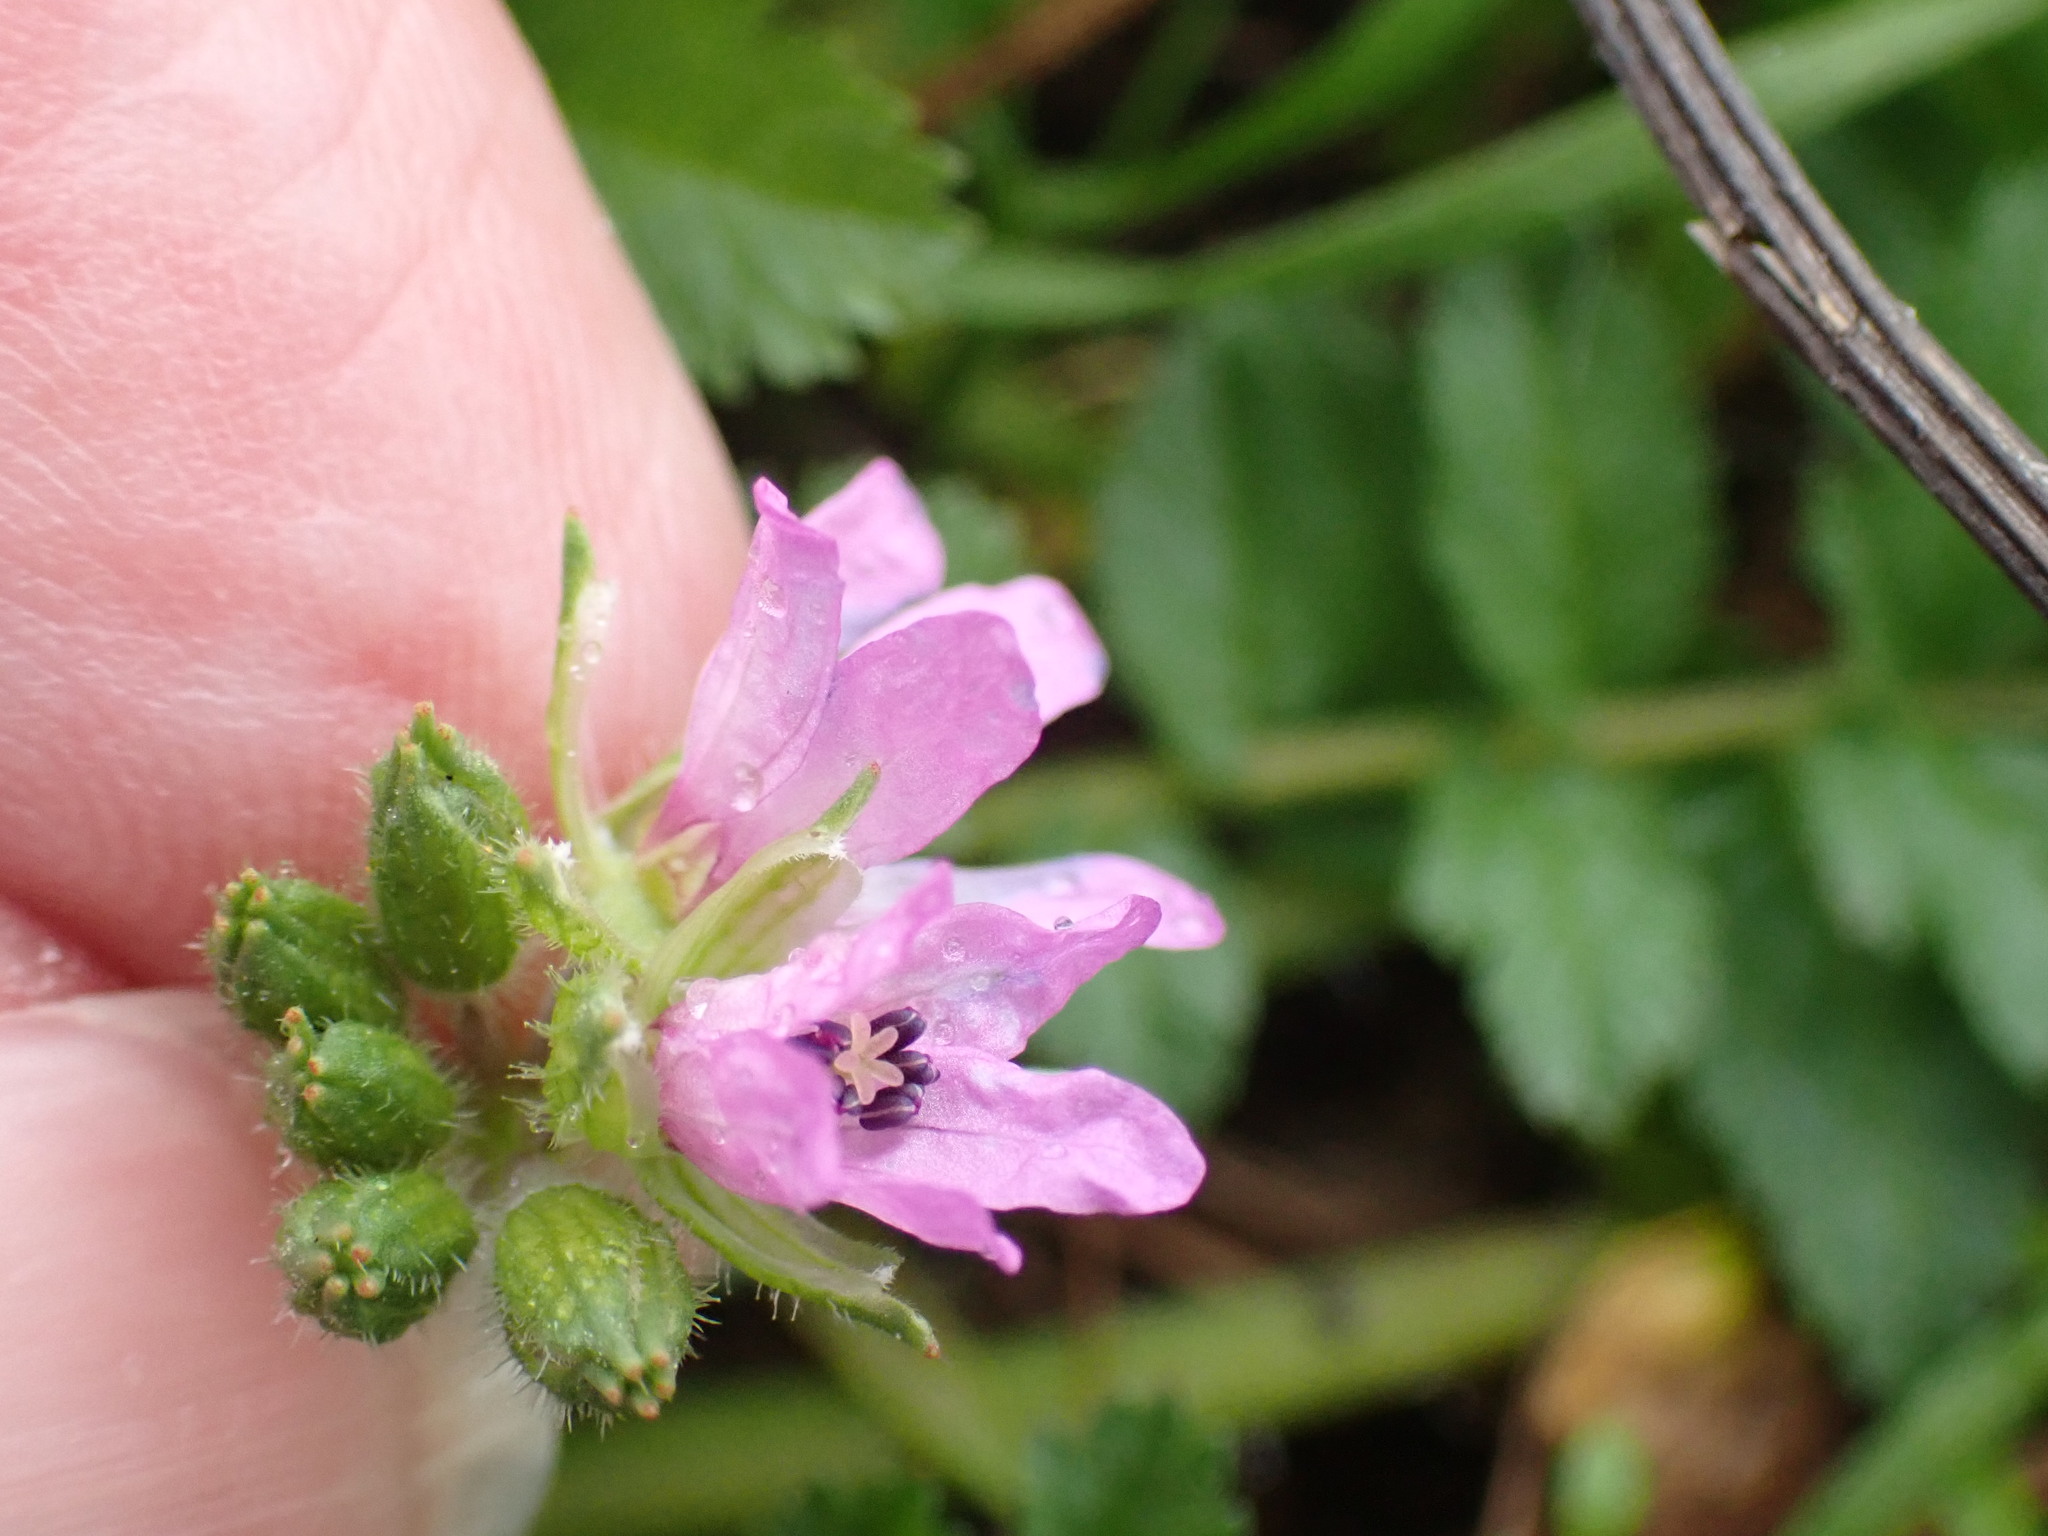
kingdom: Plantae
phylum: Tracheophyta
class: Magnoliopsida
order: Geraniales
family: Geraniaceae
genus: Erodium
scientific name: Erodium moschatum
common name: Musk stork's-bill
